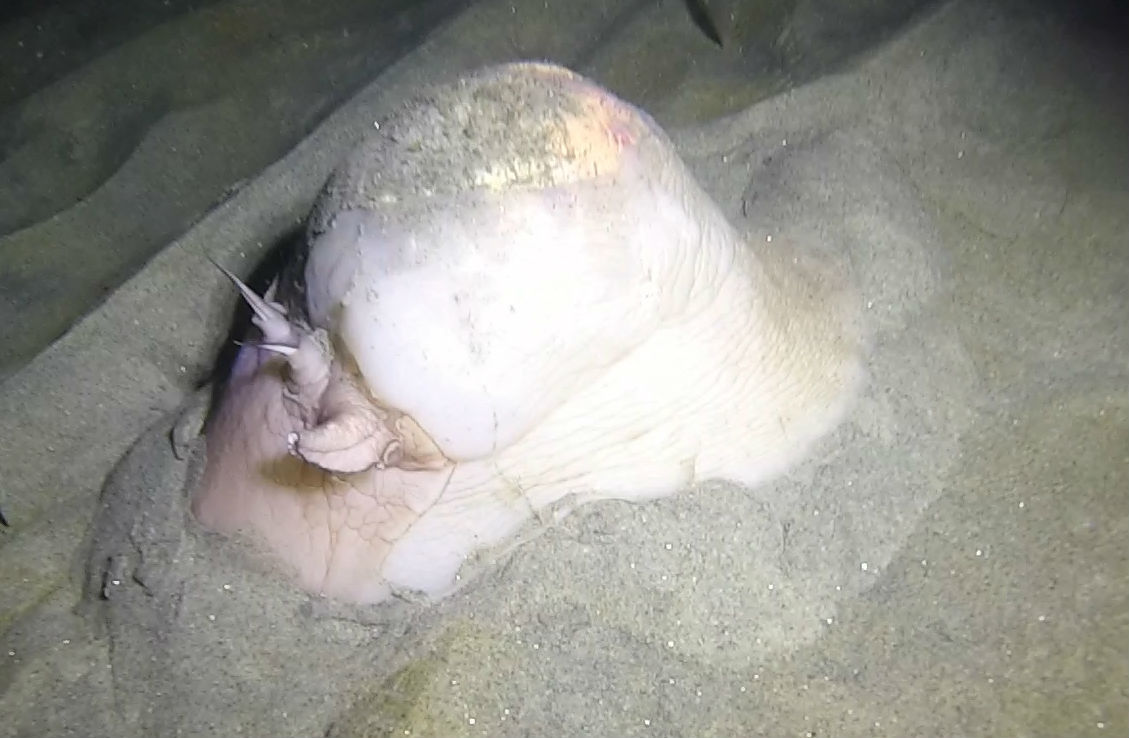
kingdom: Animalia
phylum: Mollusca
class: Gastropoda
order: Littorinimorpha
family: Naticidae
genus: Neverita
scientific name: Neverita lewisii
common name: Lewis' moonsnail
